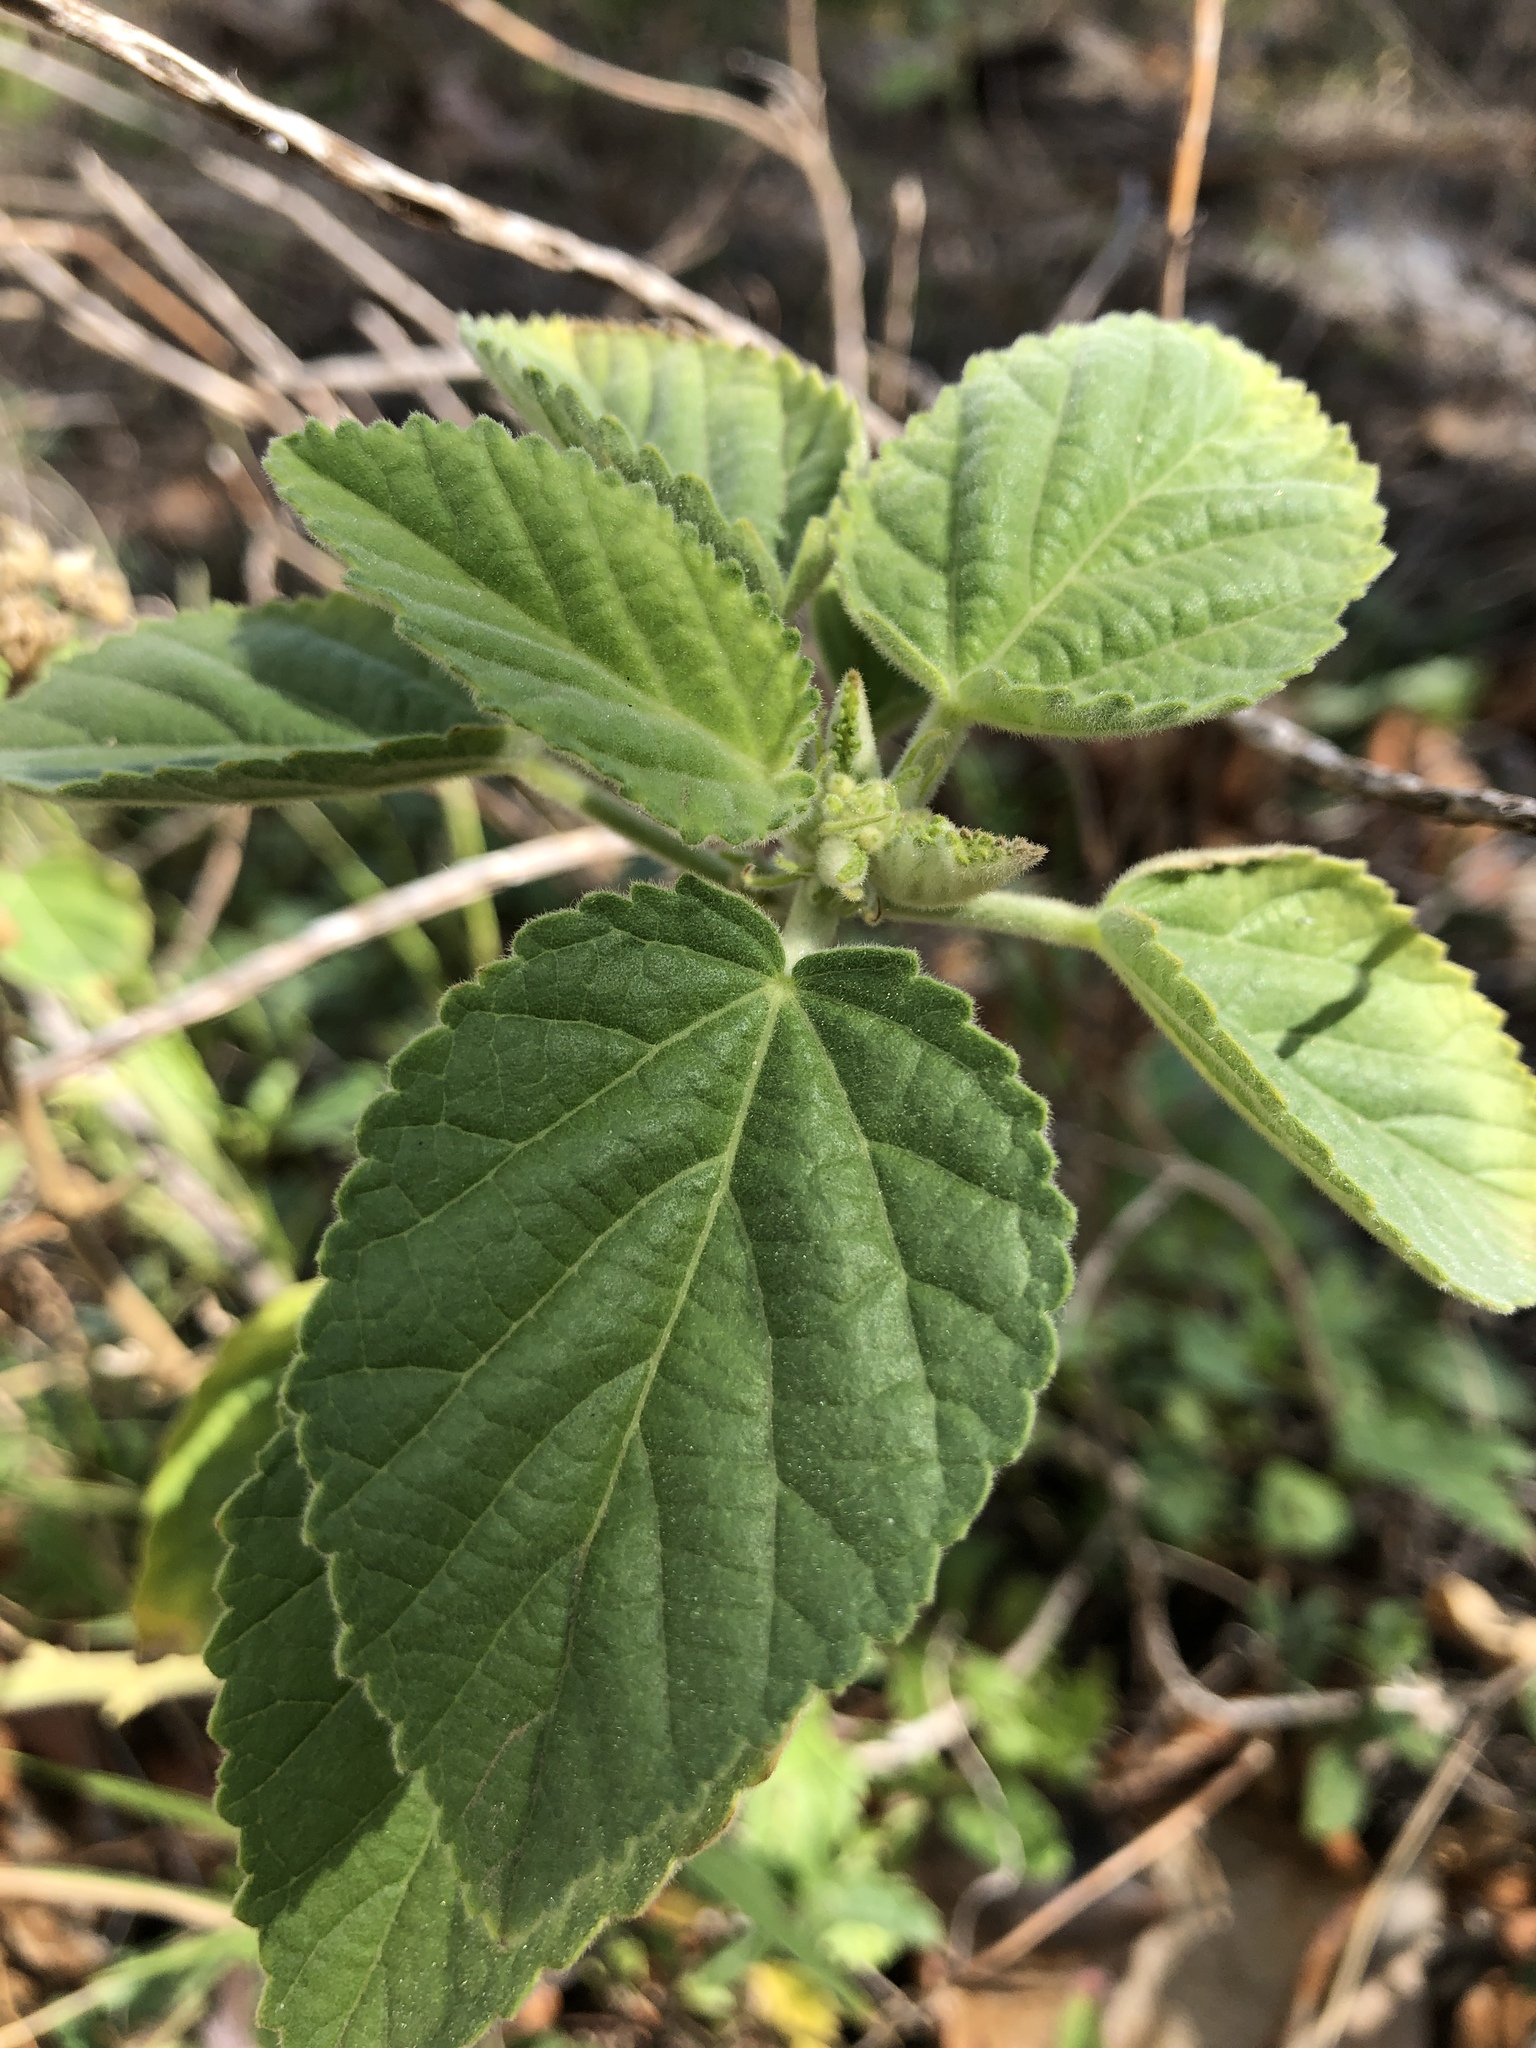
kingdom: Plantae
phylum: Tracheophyta
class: Magnoliopsida
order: Malvales
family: Malvaceae
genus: Sida
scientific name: Sida cordifolia
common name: Ilima
